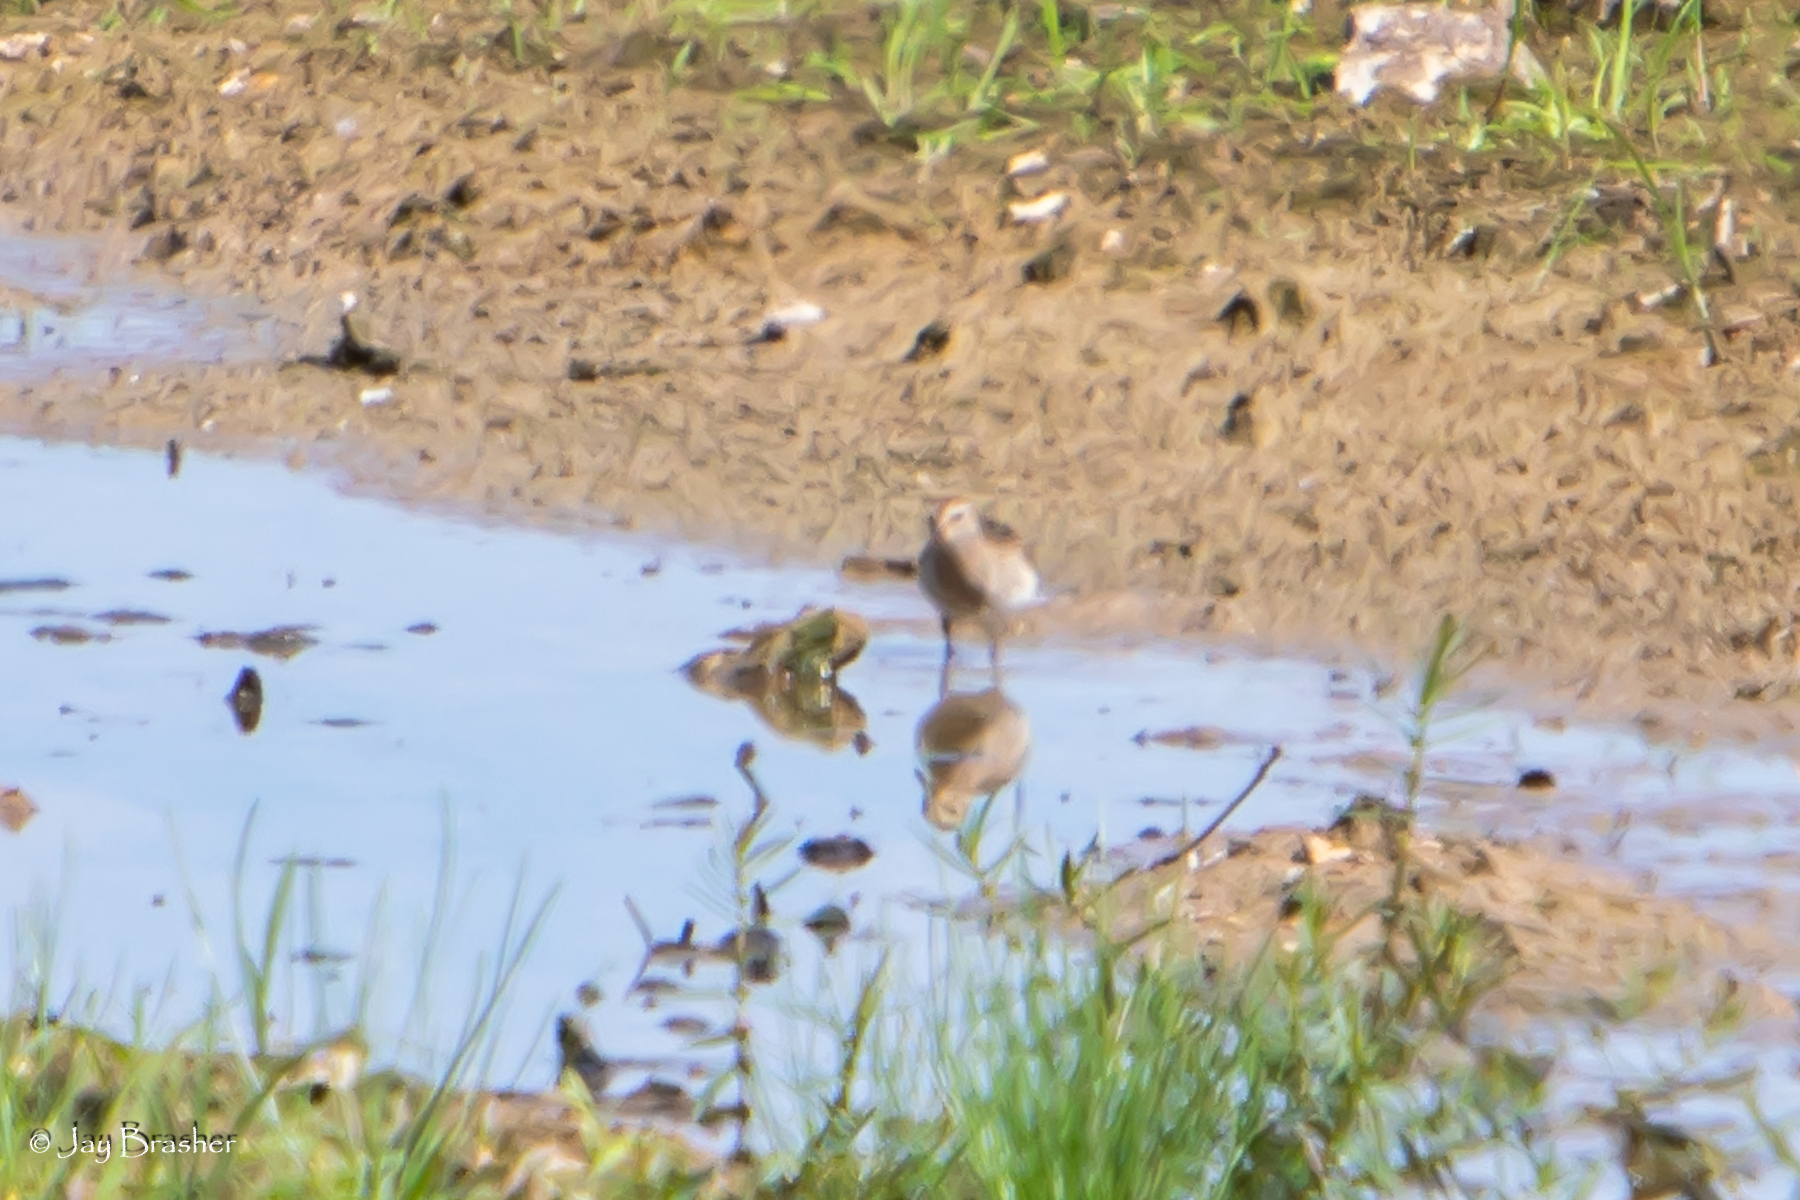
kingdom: Animalia
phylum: Chordata
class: Aves
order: Charadriiformes
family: Scolopacidae
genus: Calidris
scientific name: Calidris melanotos
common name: Pectoral sandpiper
